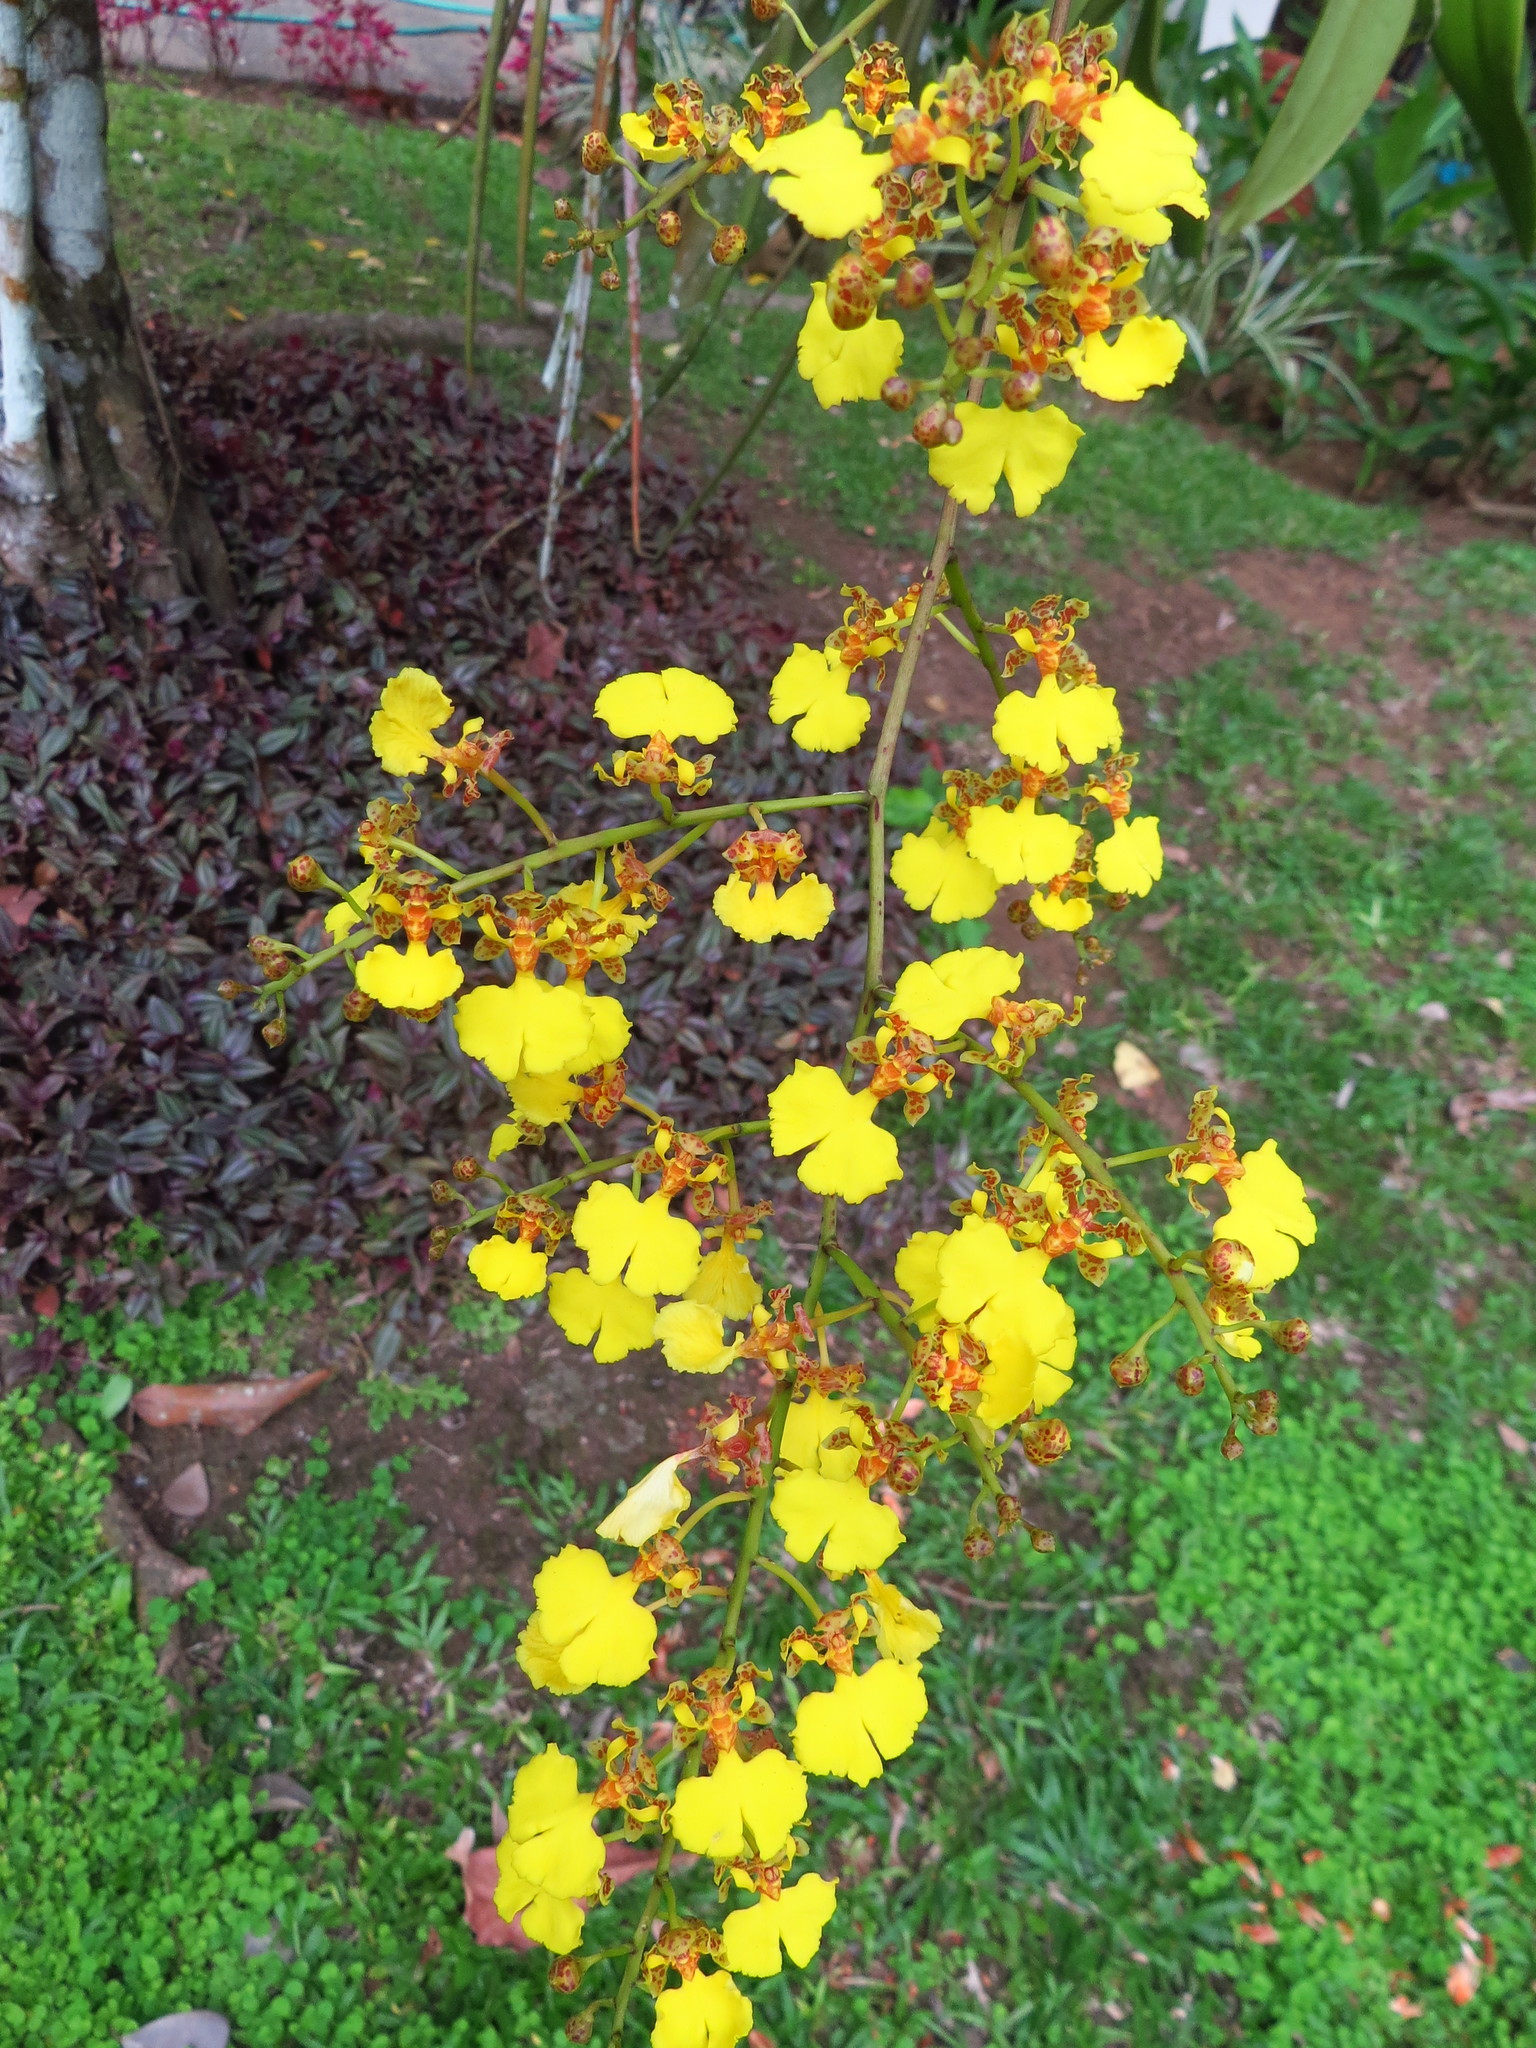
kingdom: Plantae
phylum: Tracheophyta
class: Liliopsida
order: Asparagales
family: Orchidaceae
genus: Trichocentrum
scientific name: Trichocentrum lacerum
